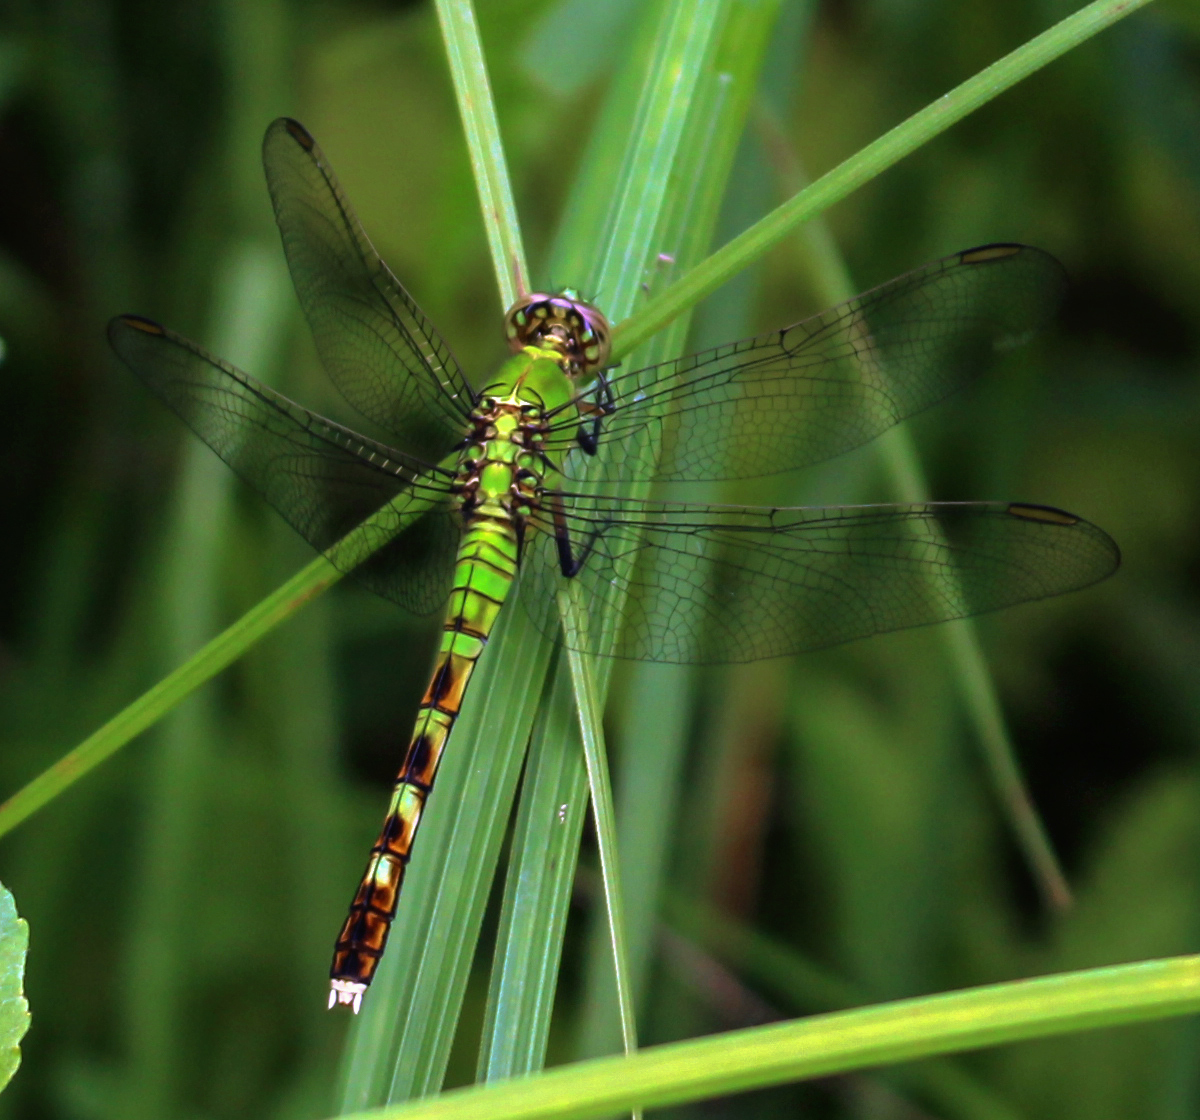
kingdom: Animalia
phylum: Arthropoda
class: Insecta
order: Odonata
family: Libellulidae
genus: Erythemis
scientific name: Erythemis simplicicollis
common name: Eastern pondhawk
